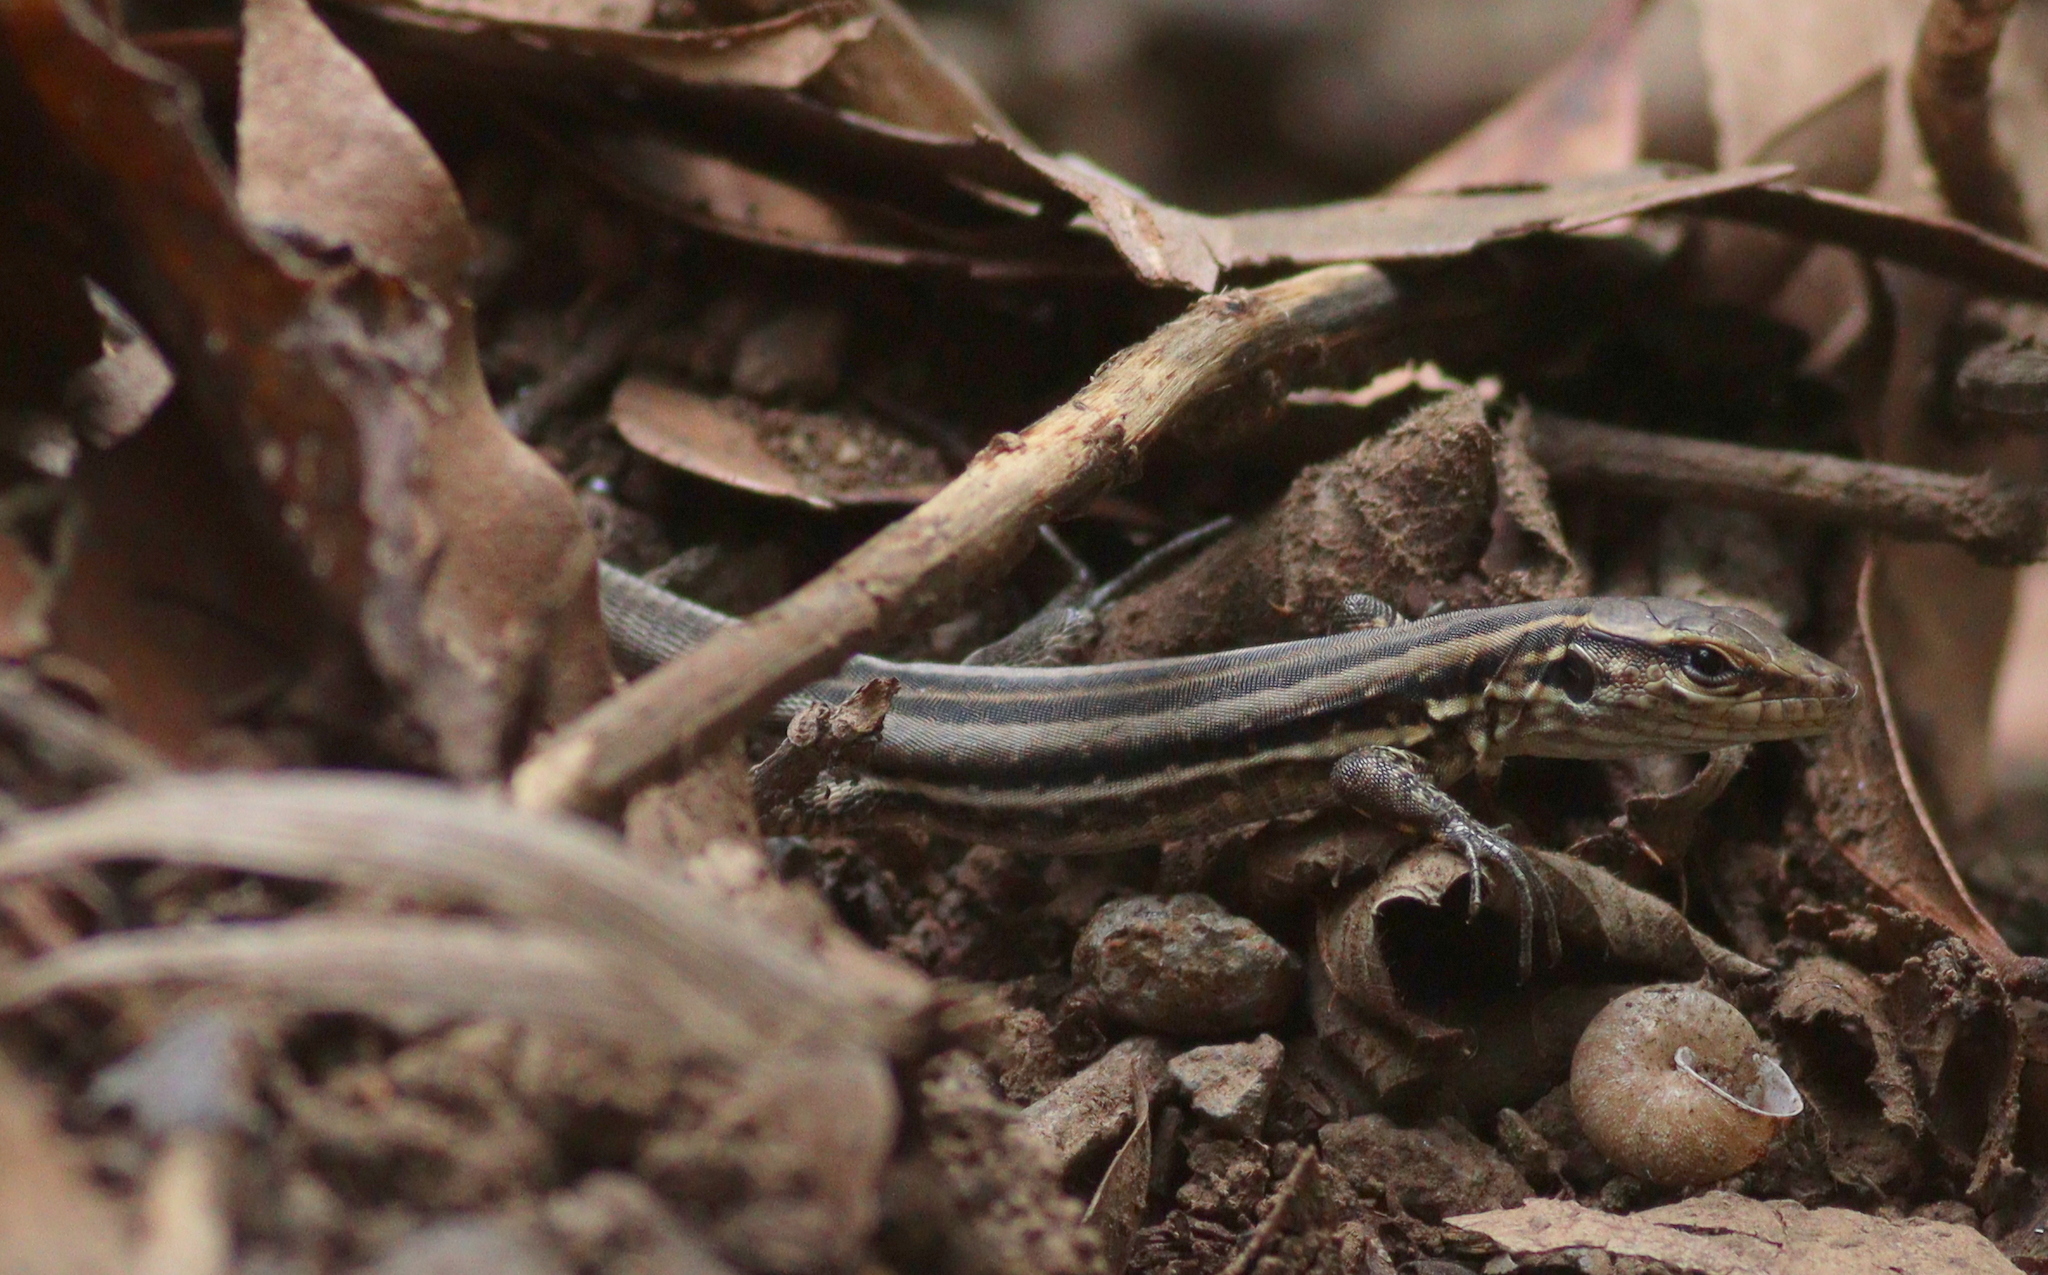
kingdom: Animalia
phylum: Chordata
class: Squamata
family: Lacertidae
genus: Gallotia
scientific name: Gallotia galloti
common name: Gallot's lizard
